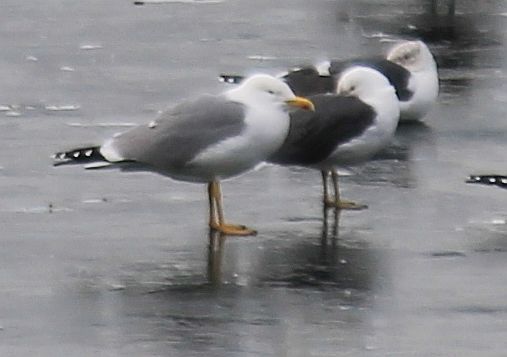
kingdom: Animalia
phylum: Chordata
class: Aves
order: Charadriiformes
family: Laridae
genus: Larus
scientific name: Larus michahellis
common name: Yellow-legged gull
